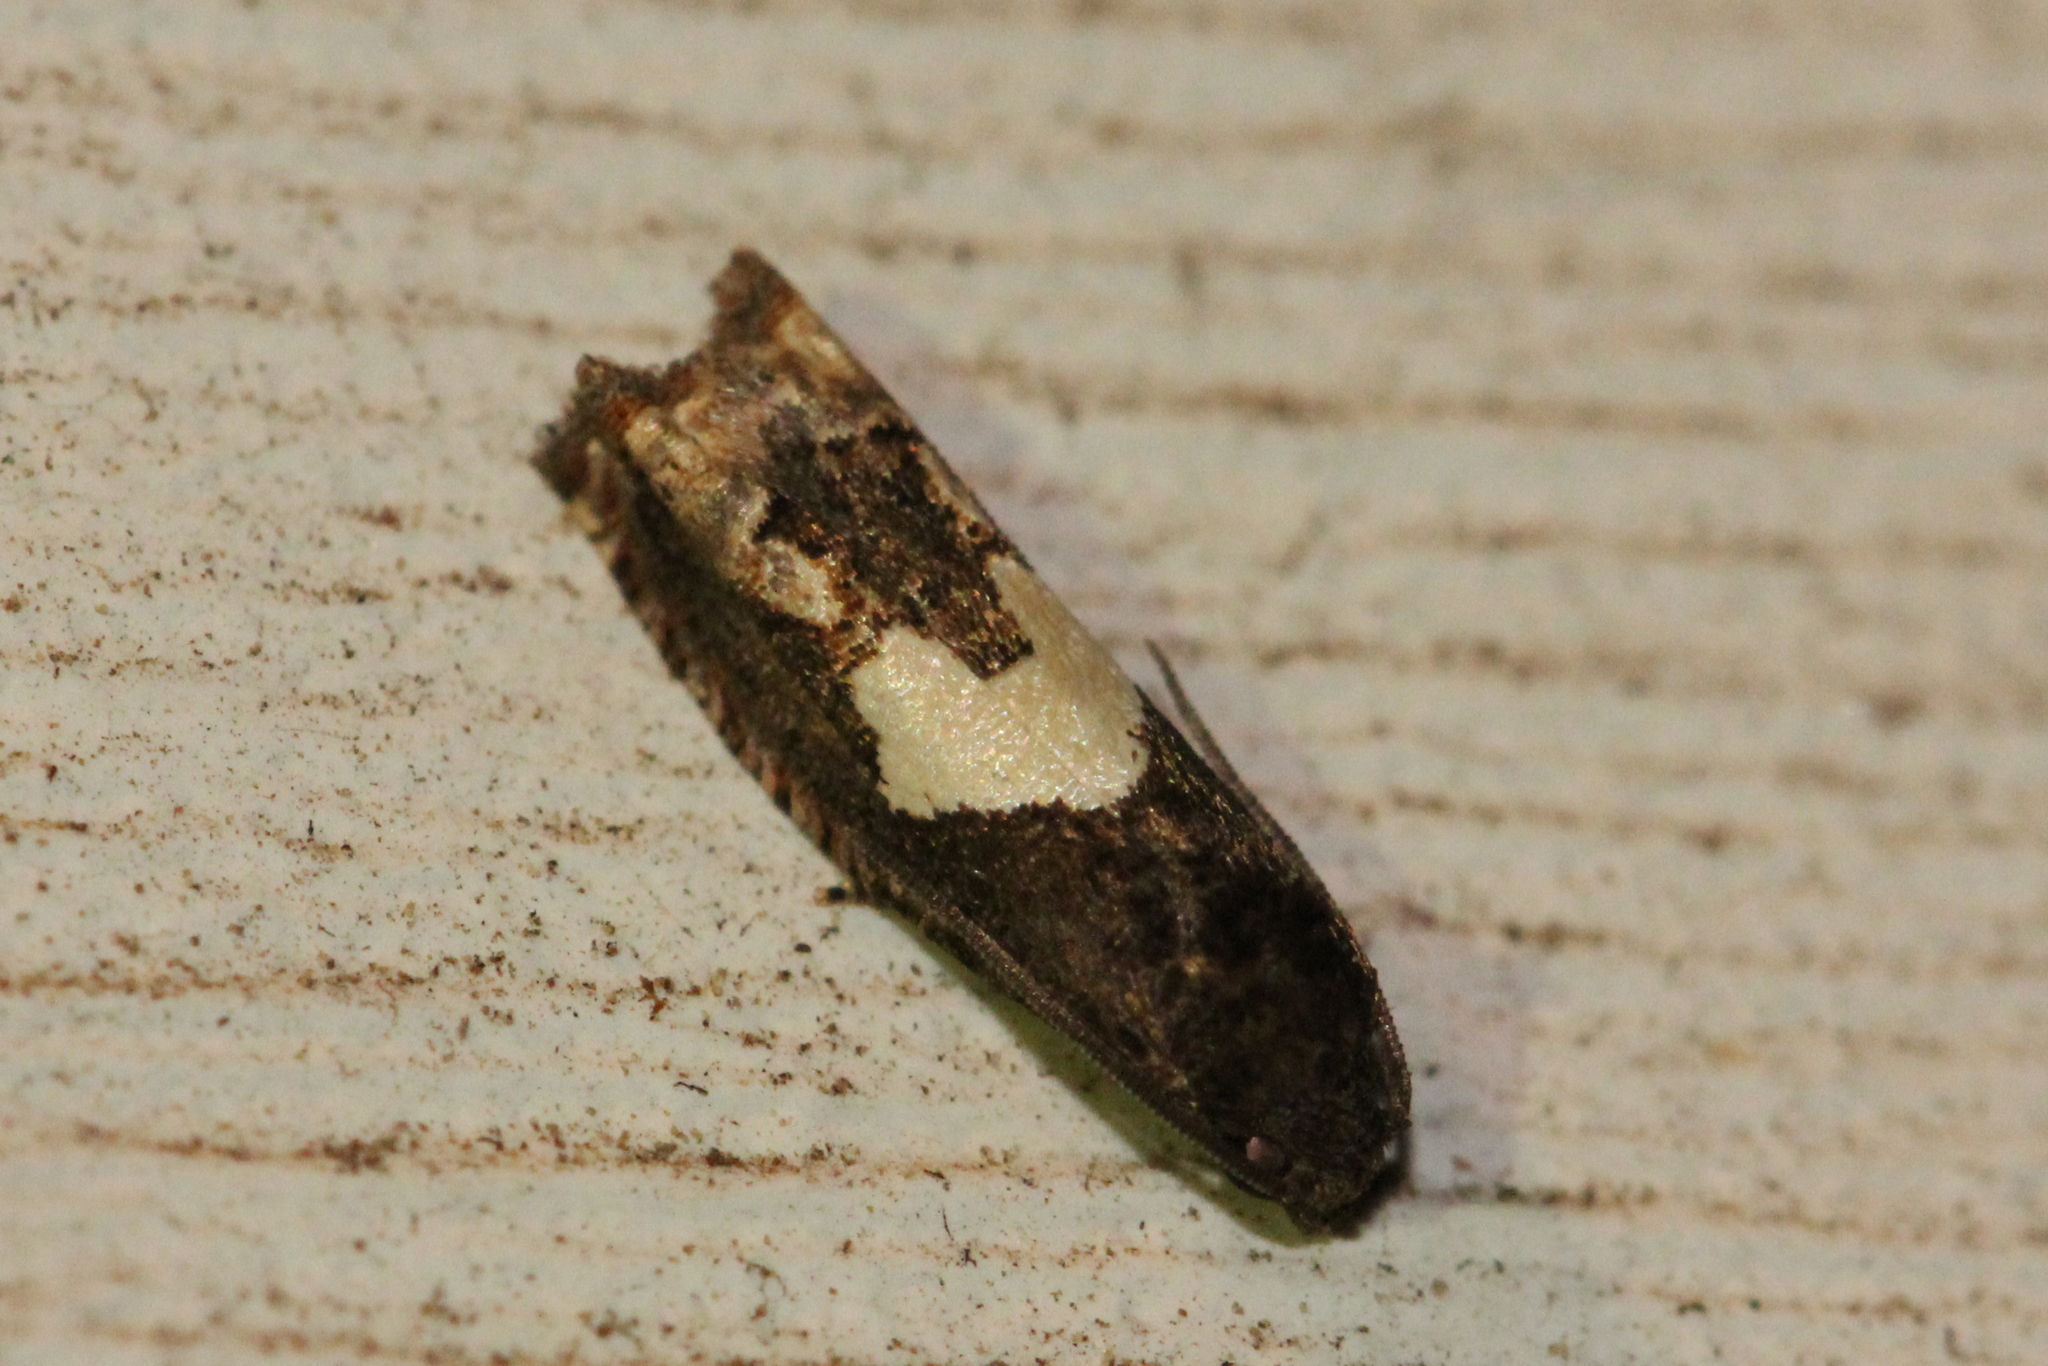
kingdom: Animalia
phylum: Arthropoda
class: Insecta
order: Lepidoptera
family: Tortricidae
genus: Epiblema
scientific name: Epiblema otiosana
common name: Bidens borer moth
